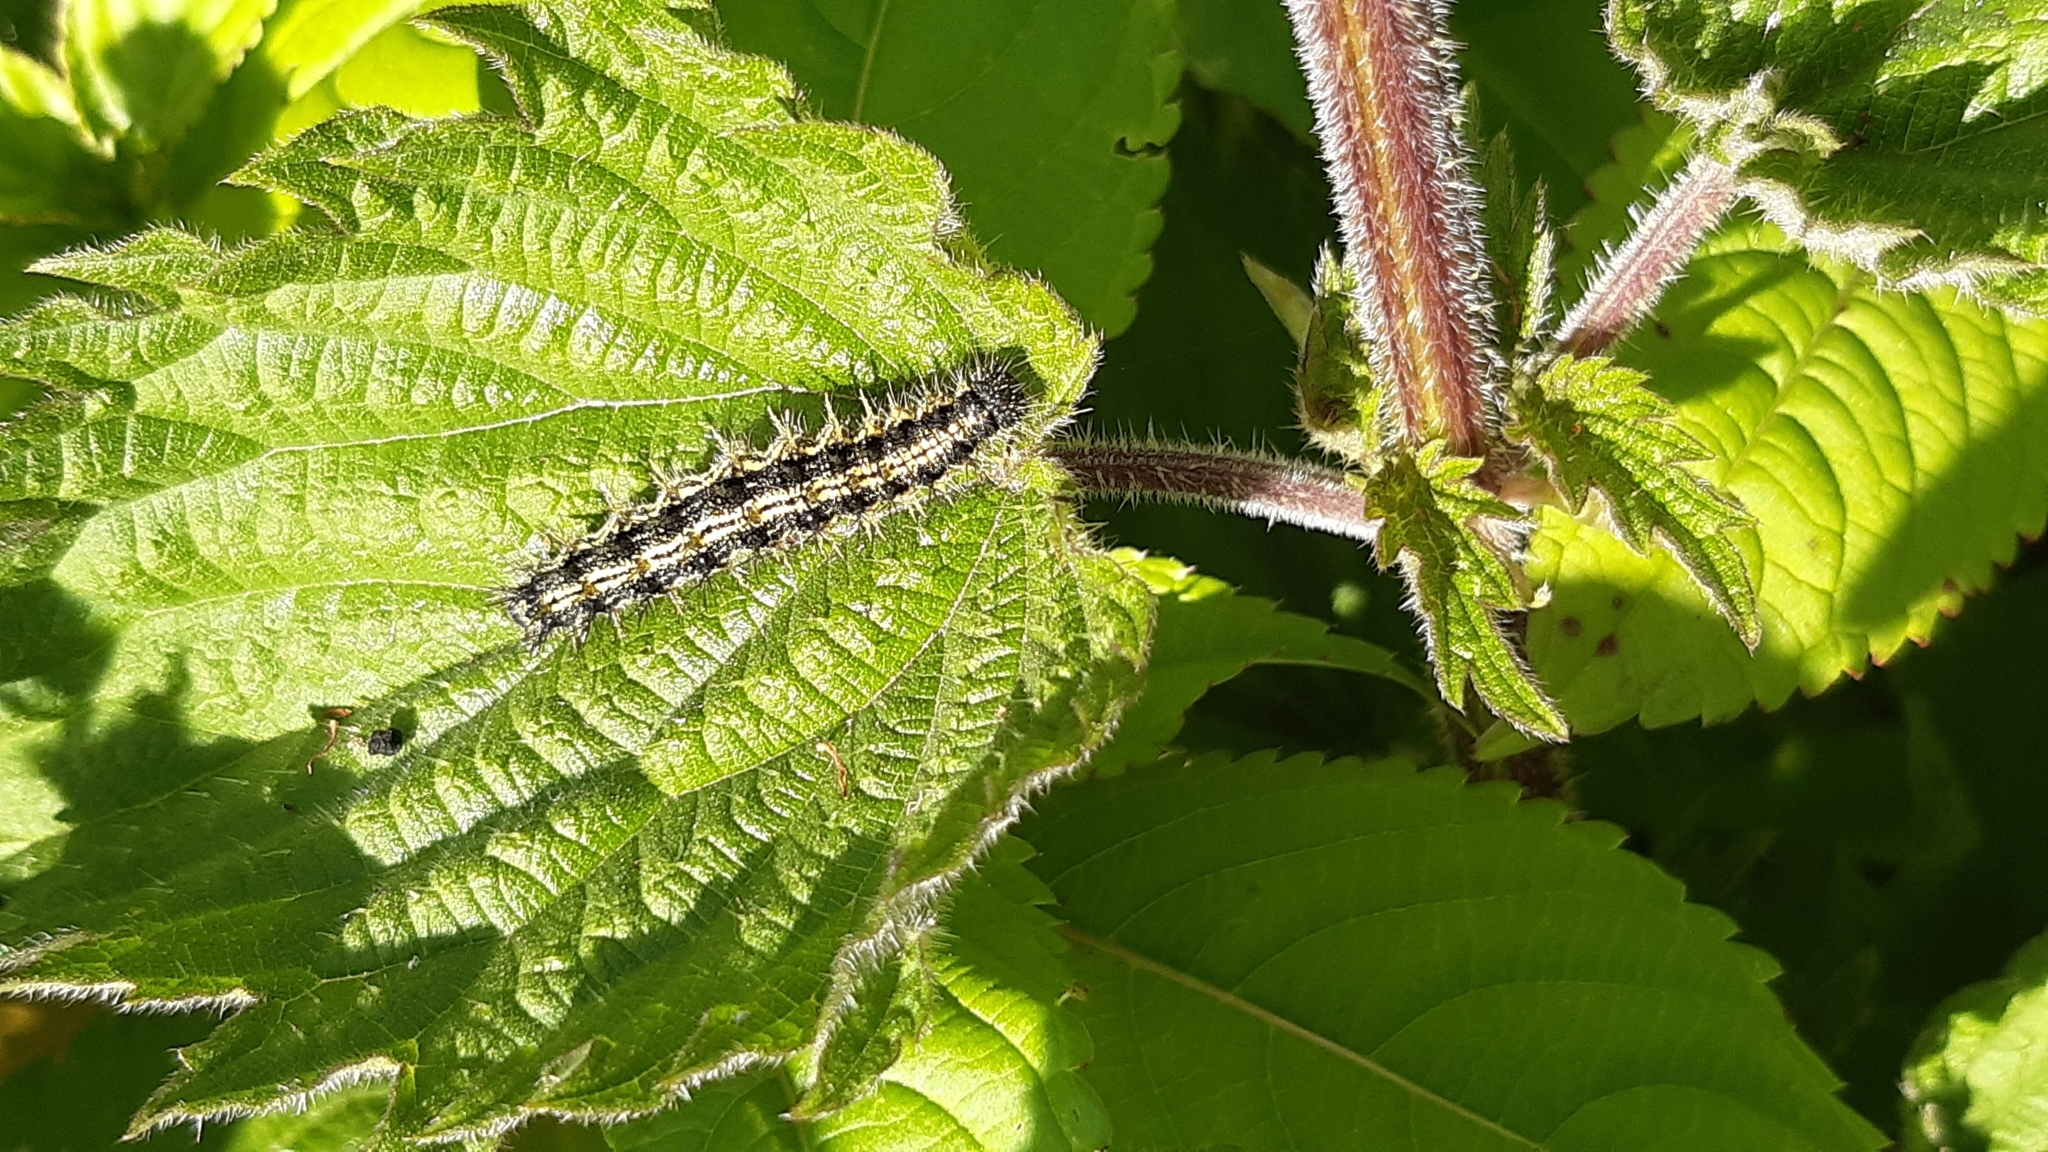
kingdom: Animalia
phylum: Arthropoda
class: Insecta
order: Lepidoptera
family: Nymphalidae
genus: Aglais
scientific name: Aglais urticae
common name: Small tortoiseshell
